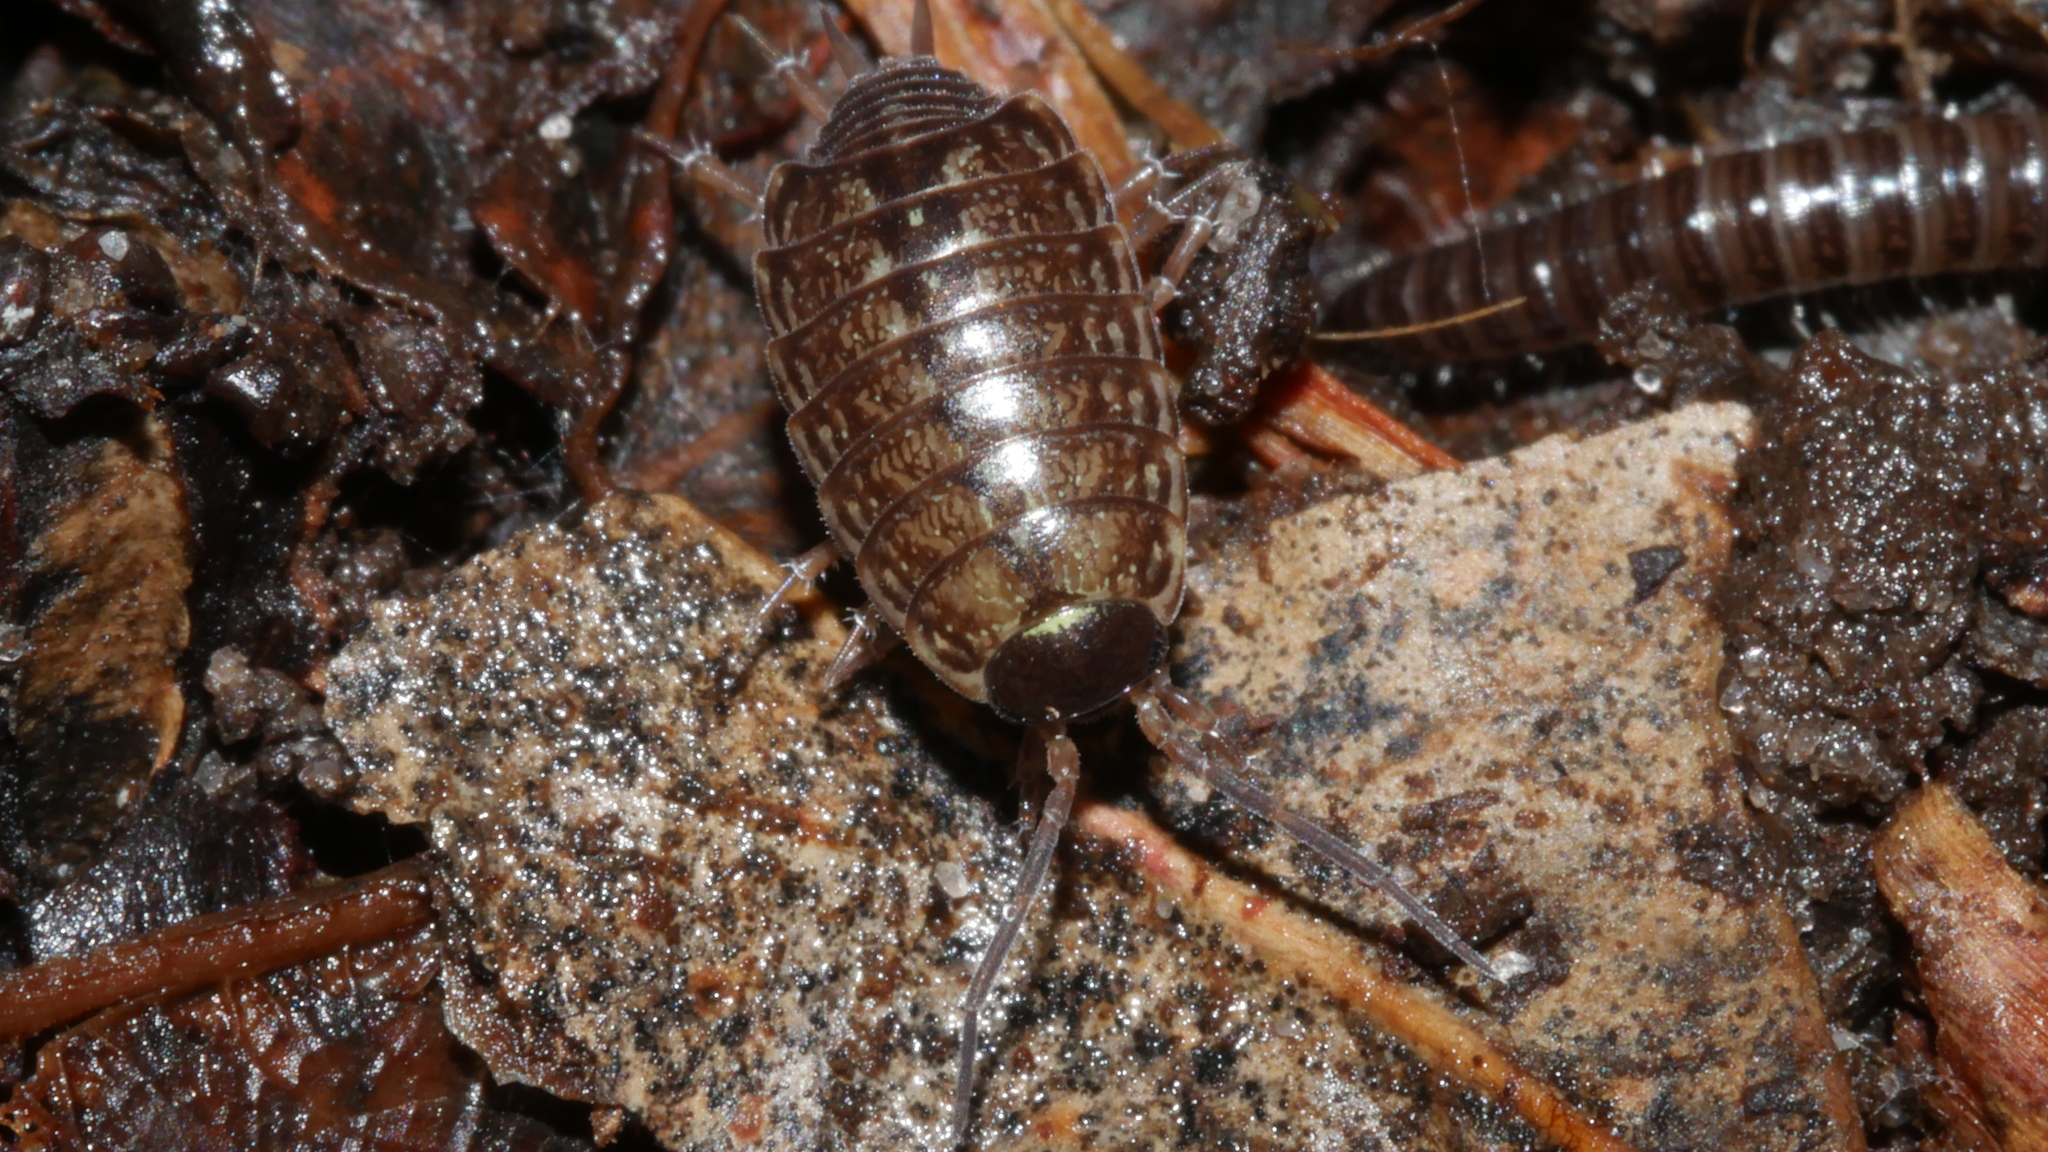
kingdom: Animalia
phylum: Arthropoda
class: Malacostraca
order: Isopoda
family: Philosciidae
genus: Philoscia
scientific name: Philoscia muscorum
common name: Common striped woodlouse
